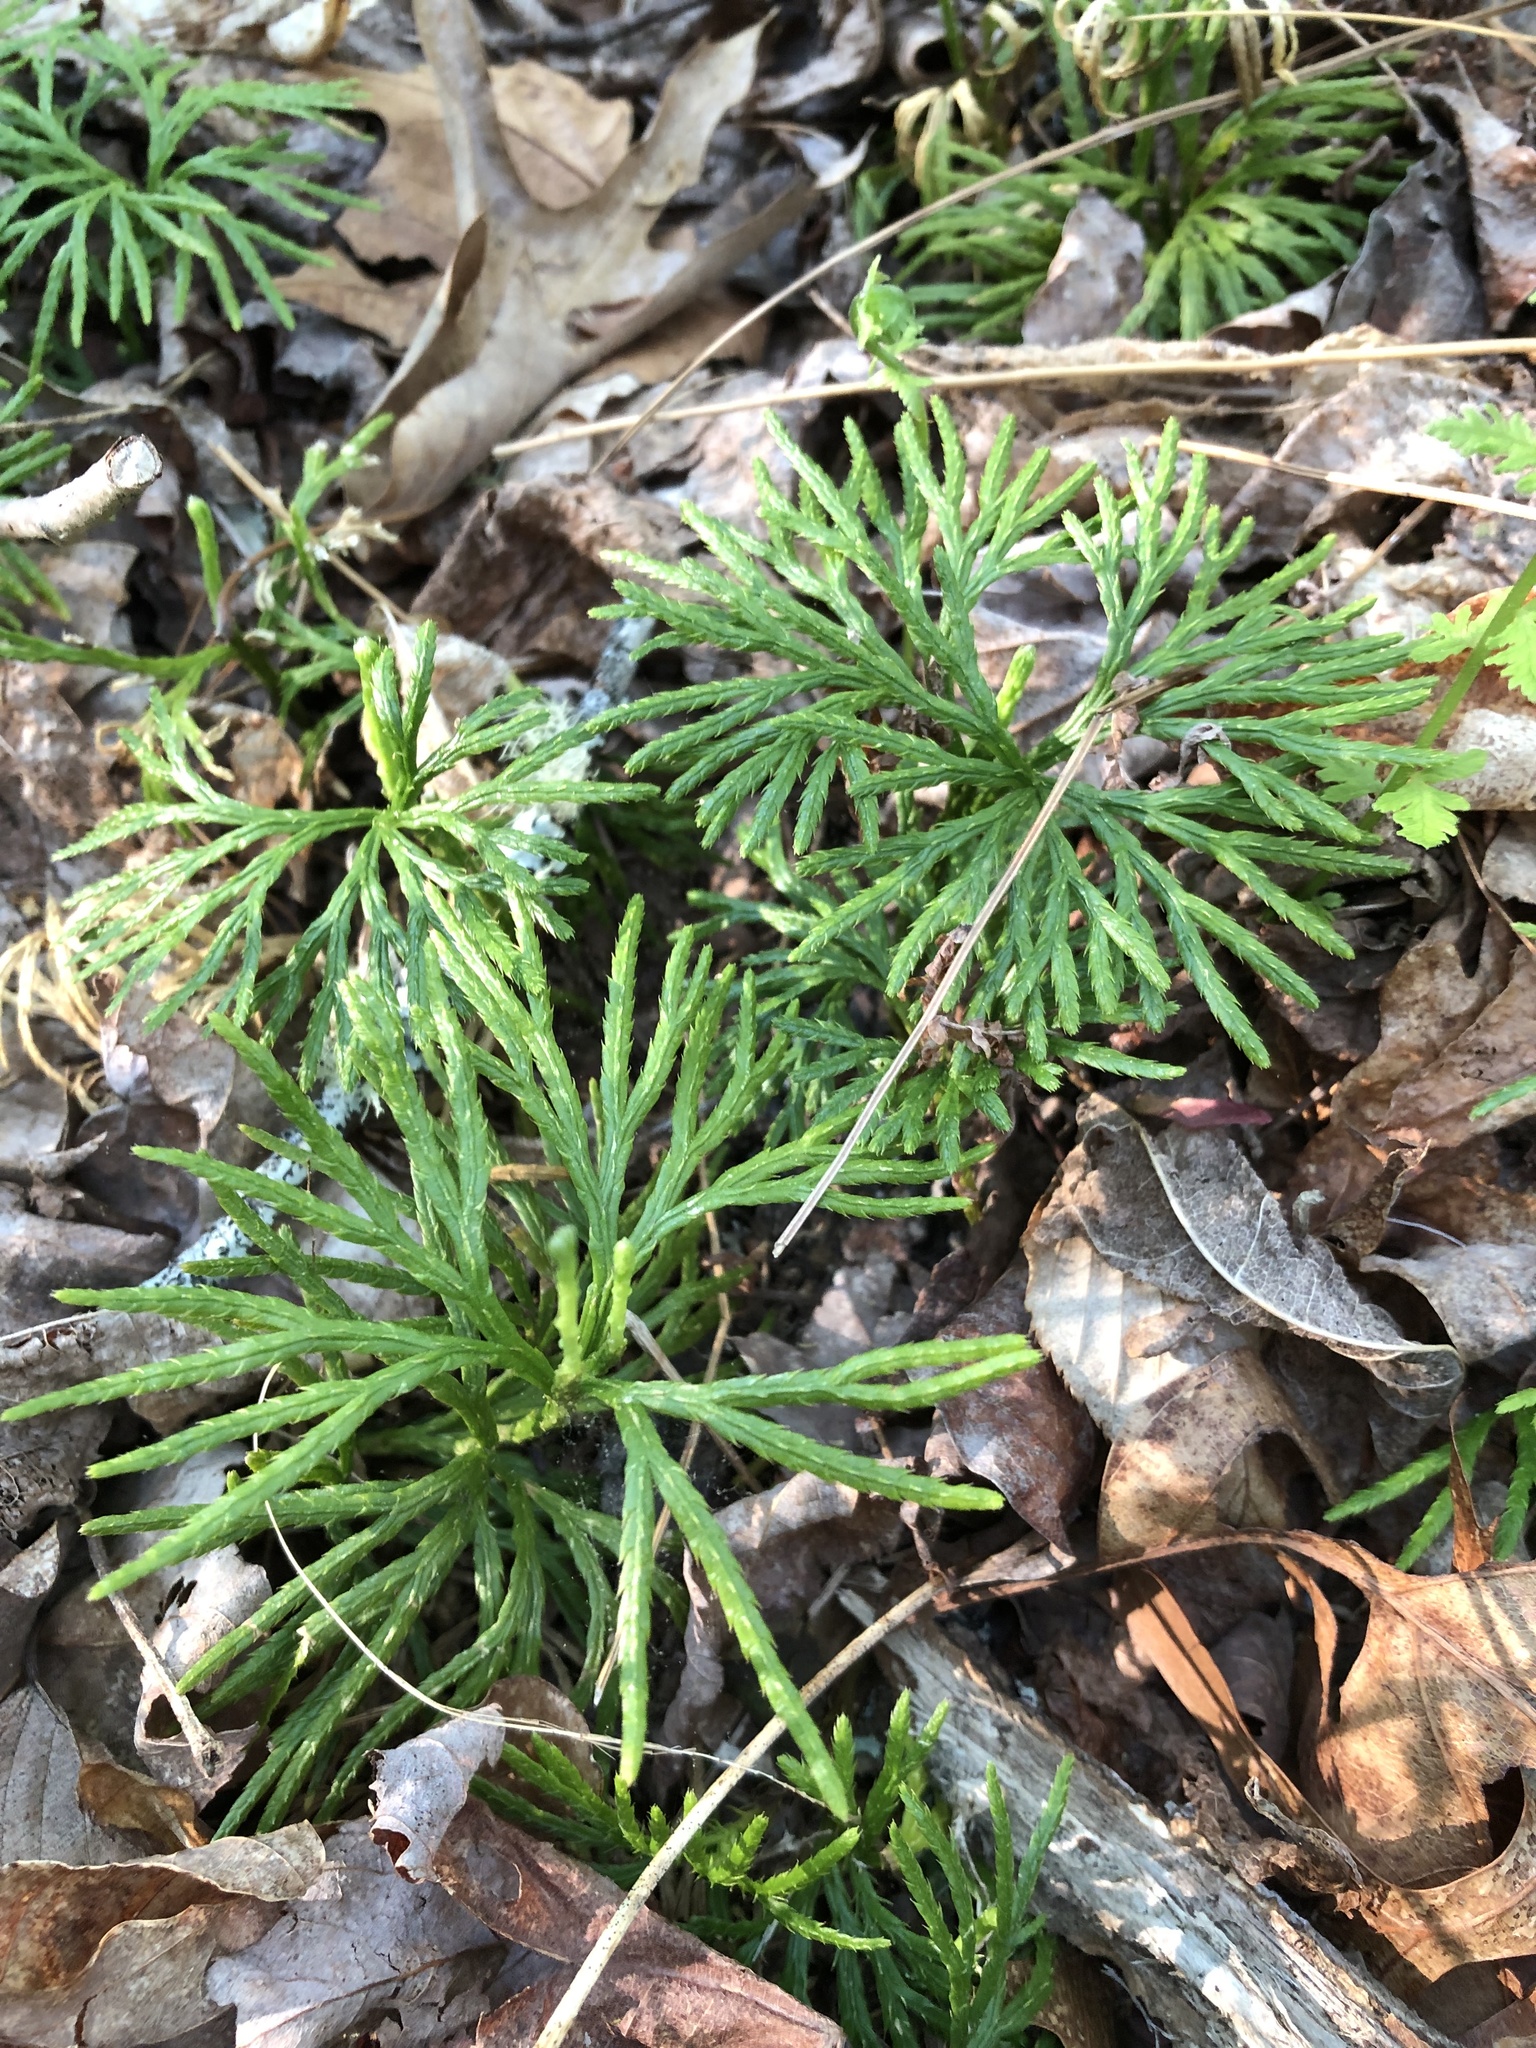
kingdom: Plantae
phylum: Tracheophyta
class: Lycopodiopsida
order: Lycopodiales
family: Lycopodiaceae
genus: Diphasiastrum
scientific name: Diphasiastrum digitatum
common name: Southern running-pine
